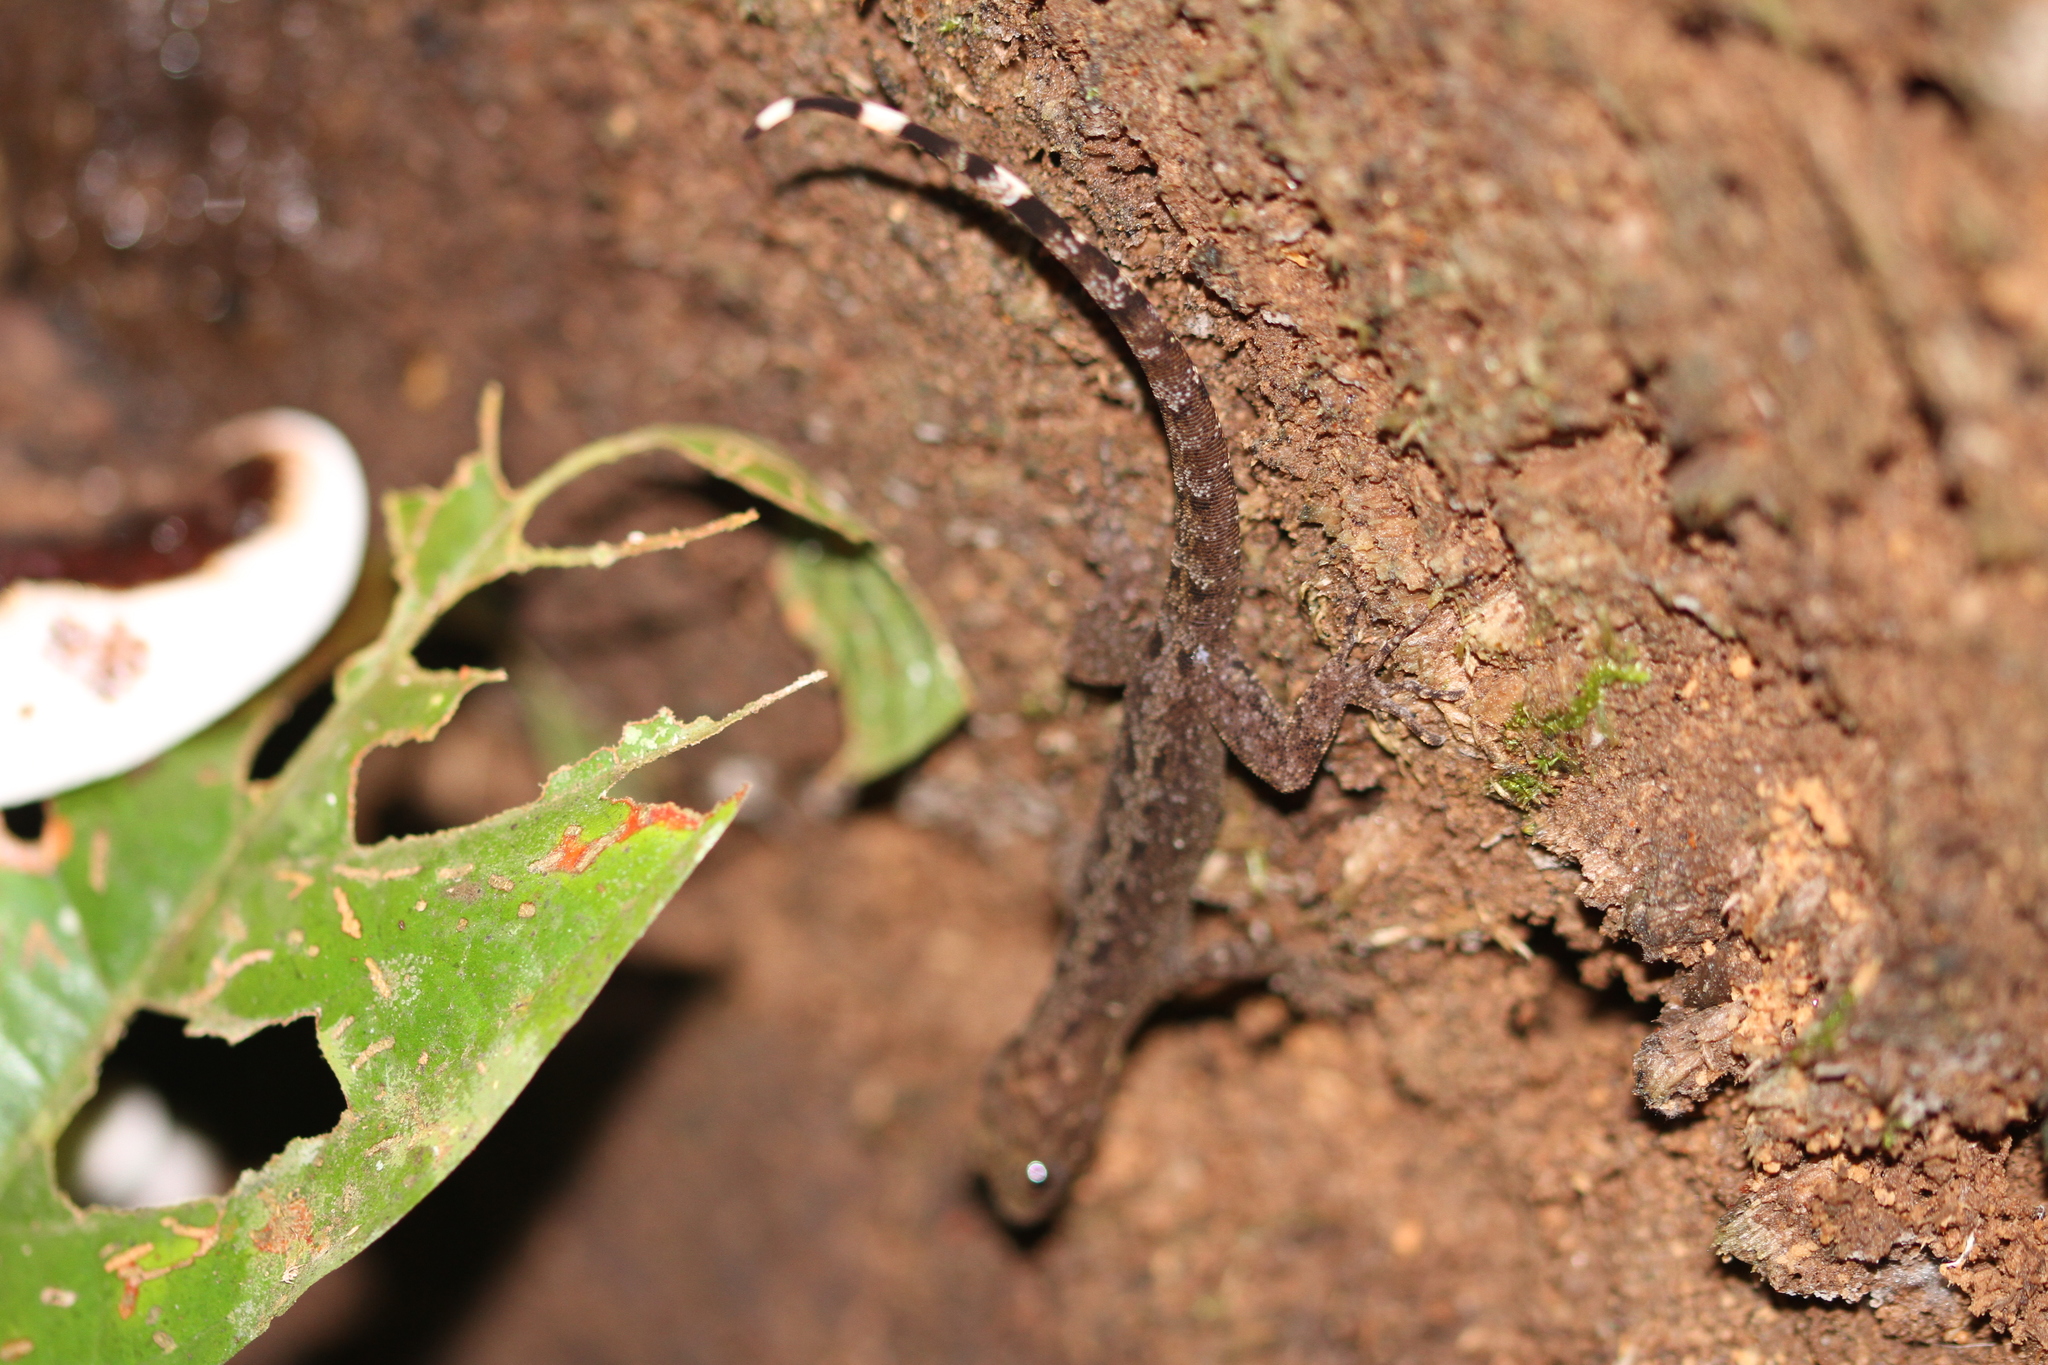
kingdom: Animalia
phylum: Chordata
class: Squamata
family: Sphaerodactylidae
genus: Gonatodes
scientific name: Gonatodes annularis
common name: Annulated gecko
